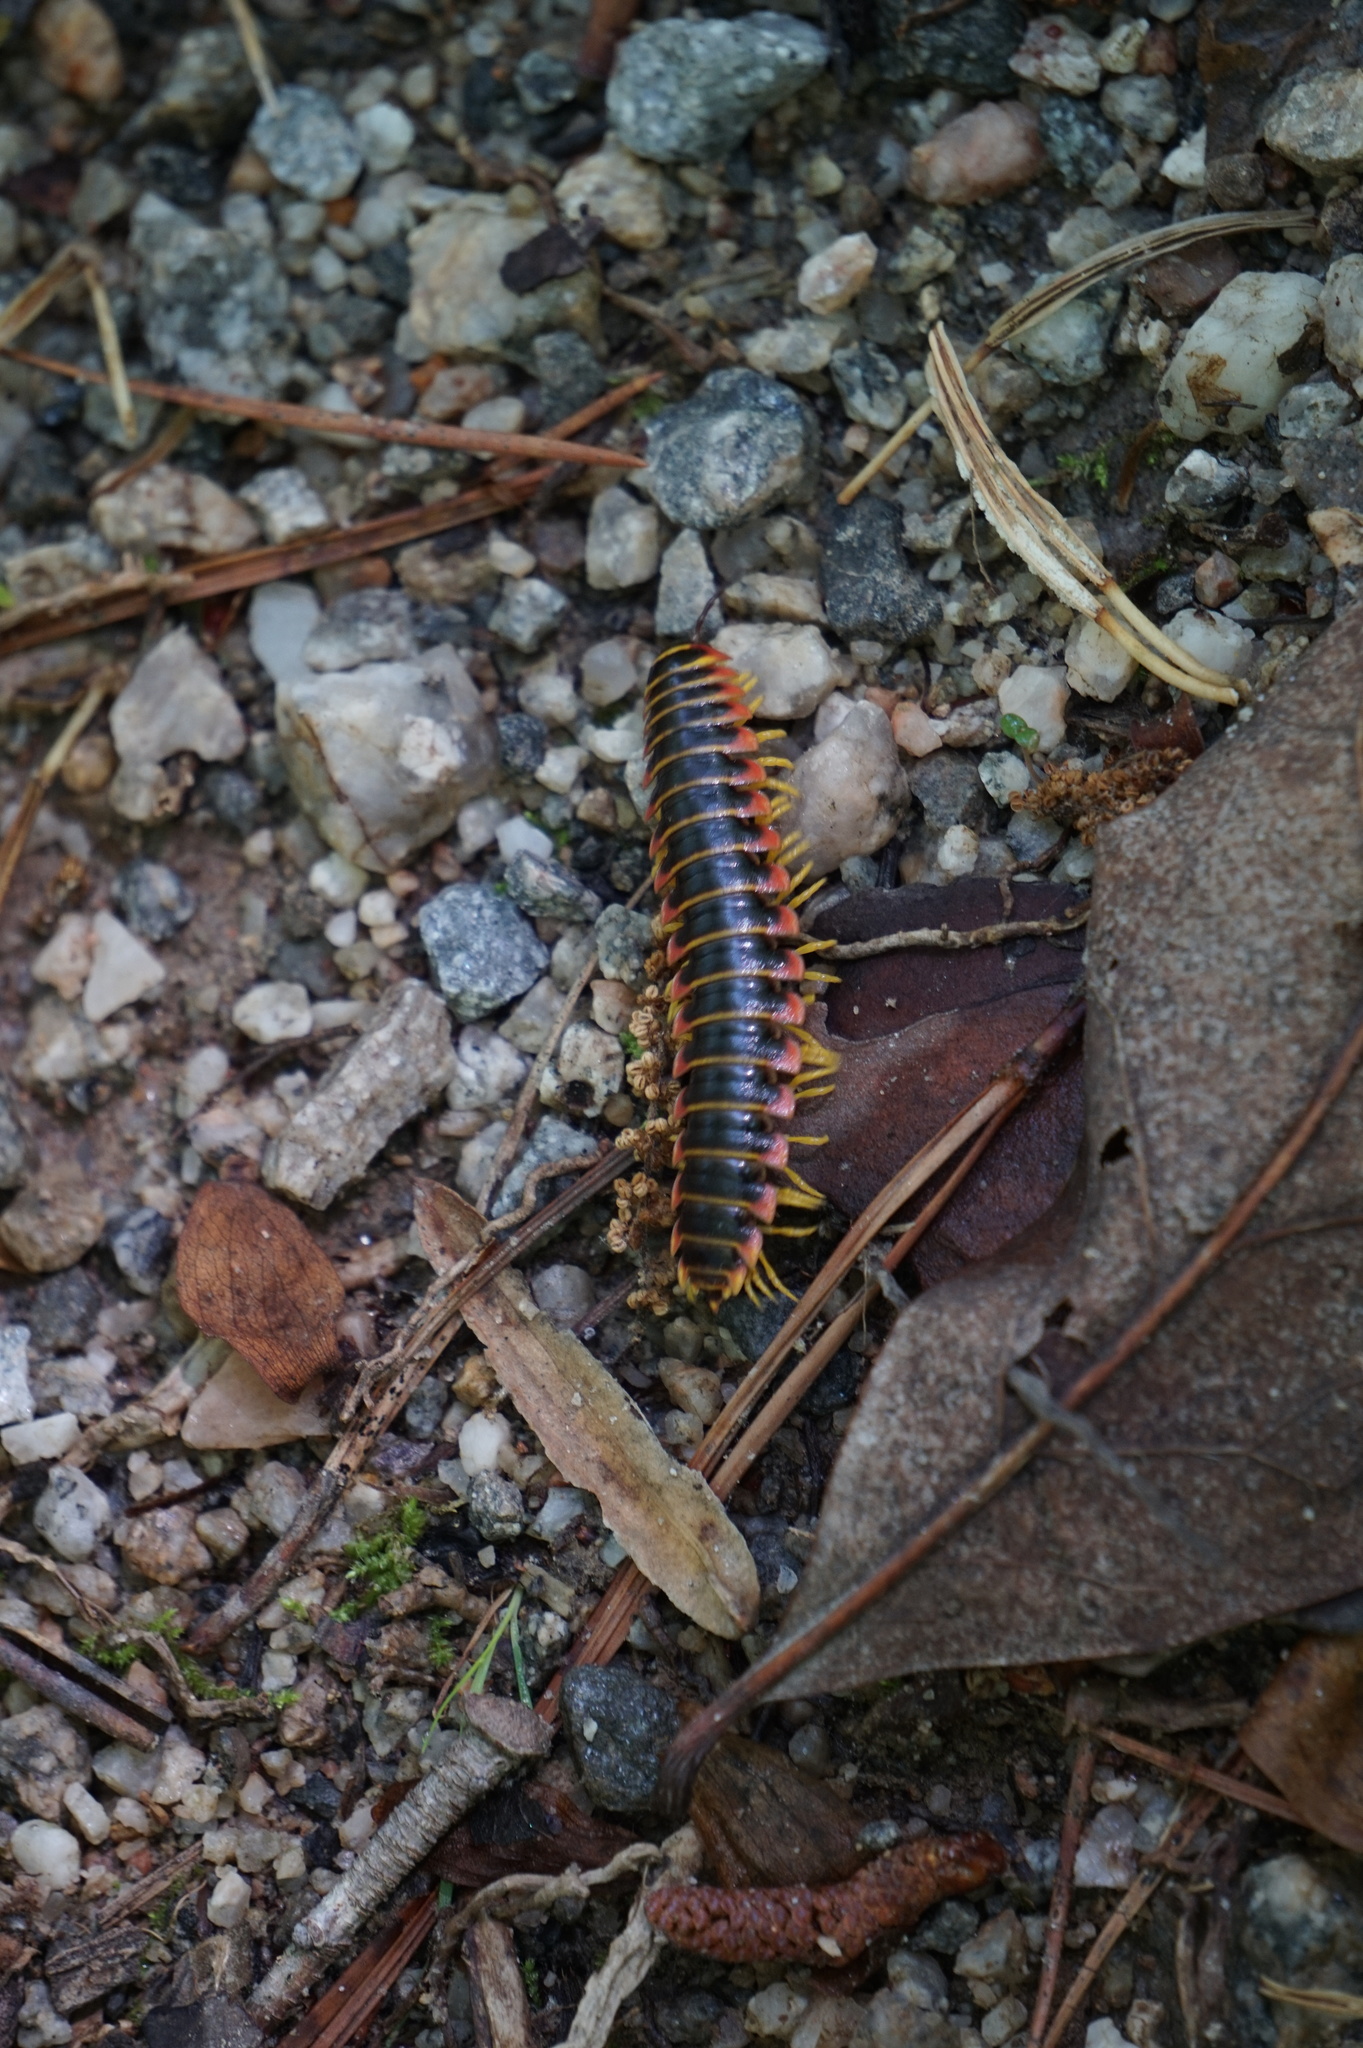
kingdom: Animalia
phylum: Arthropoda
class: Diplopoda
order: Polydesmida
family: Xystodesmidae
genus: Apheloria
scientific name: Apheloria virginiensis
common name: Black-and-gold flat millipede
